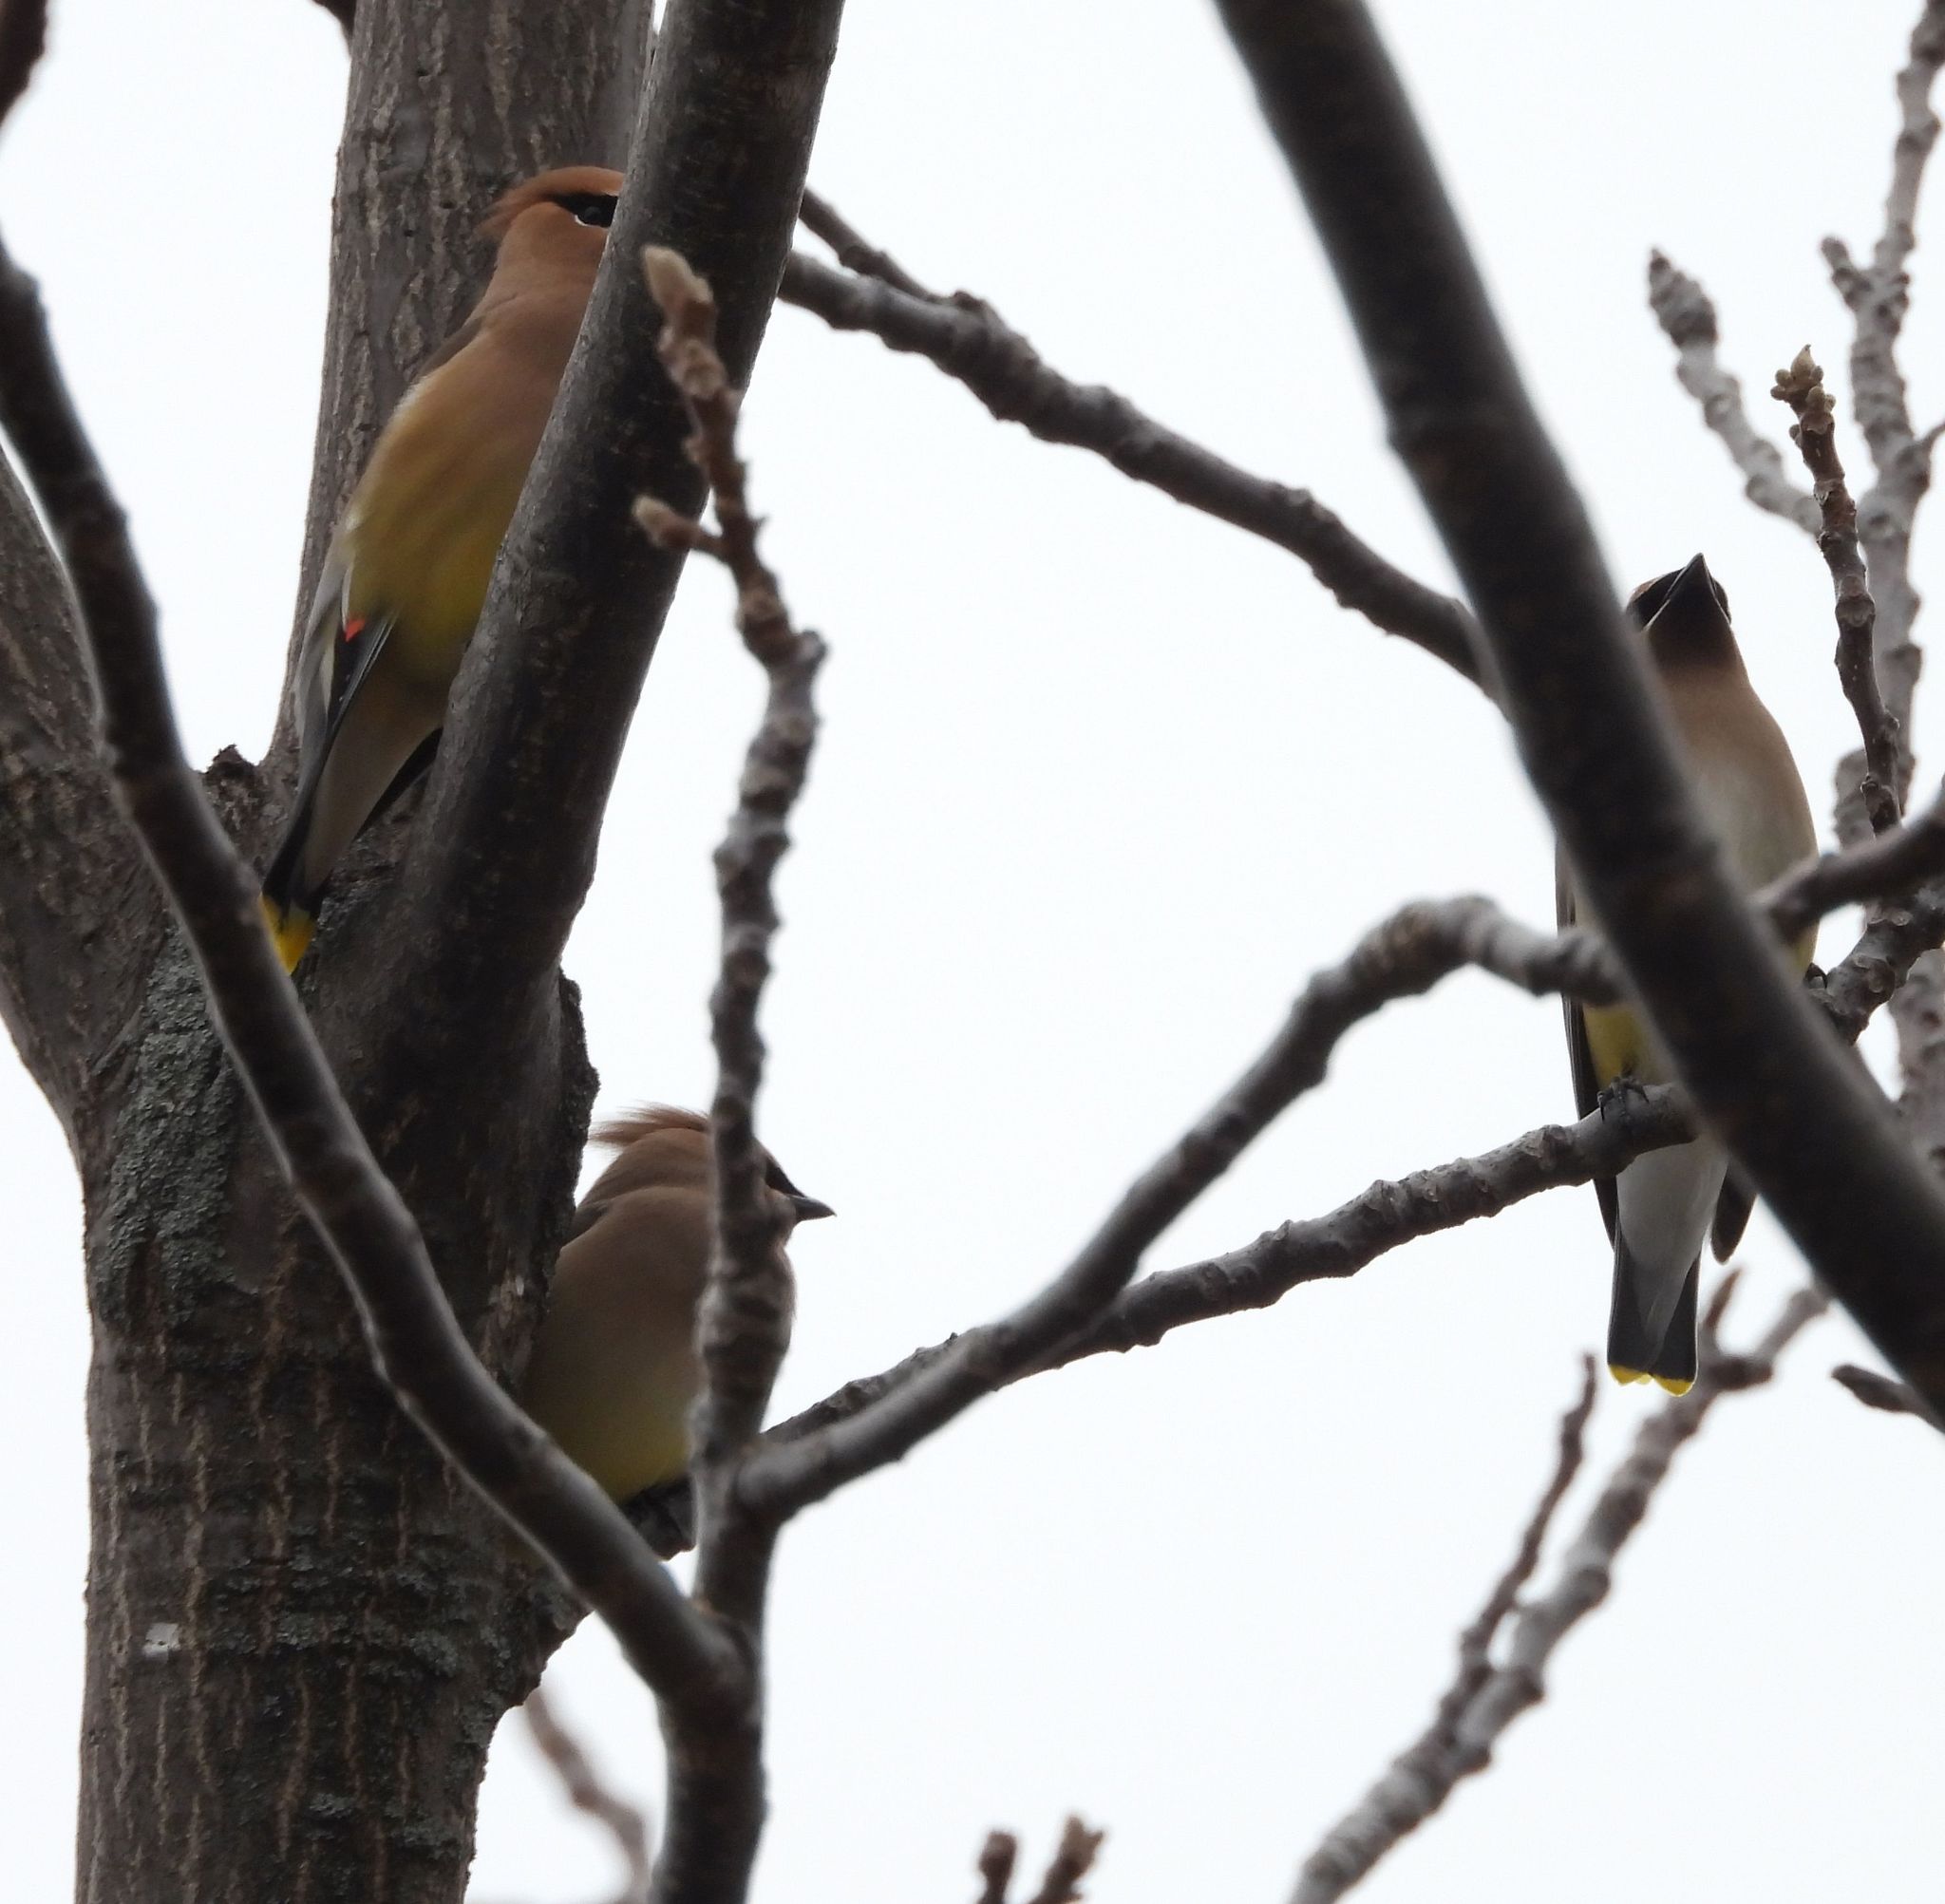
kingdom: Animalia
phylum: Chordata
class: Aves
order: Passeriformes
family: Bombycillidae
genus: Bombycilla
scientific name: Bombycilla cedrorum
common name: Cedar waxwing
